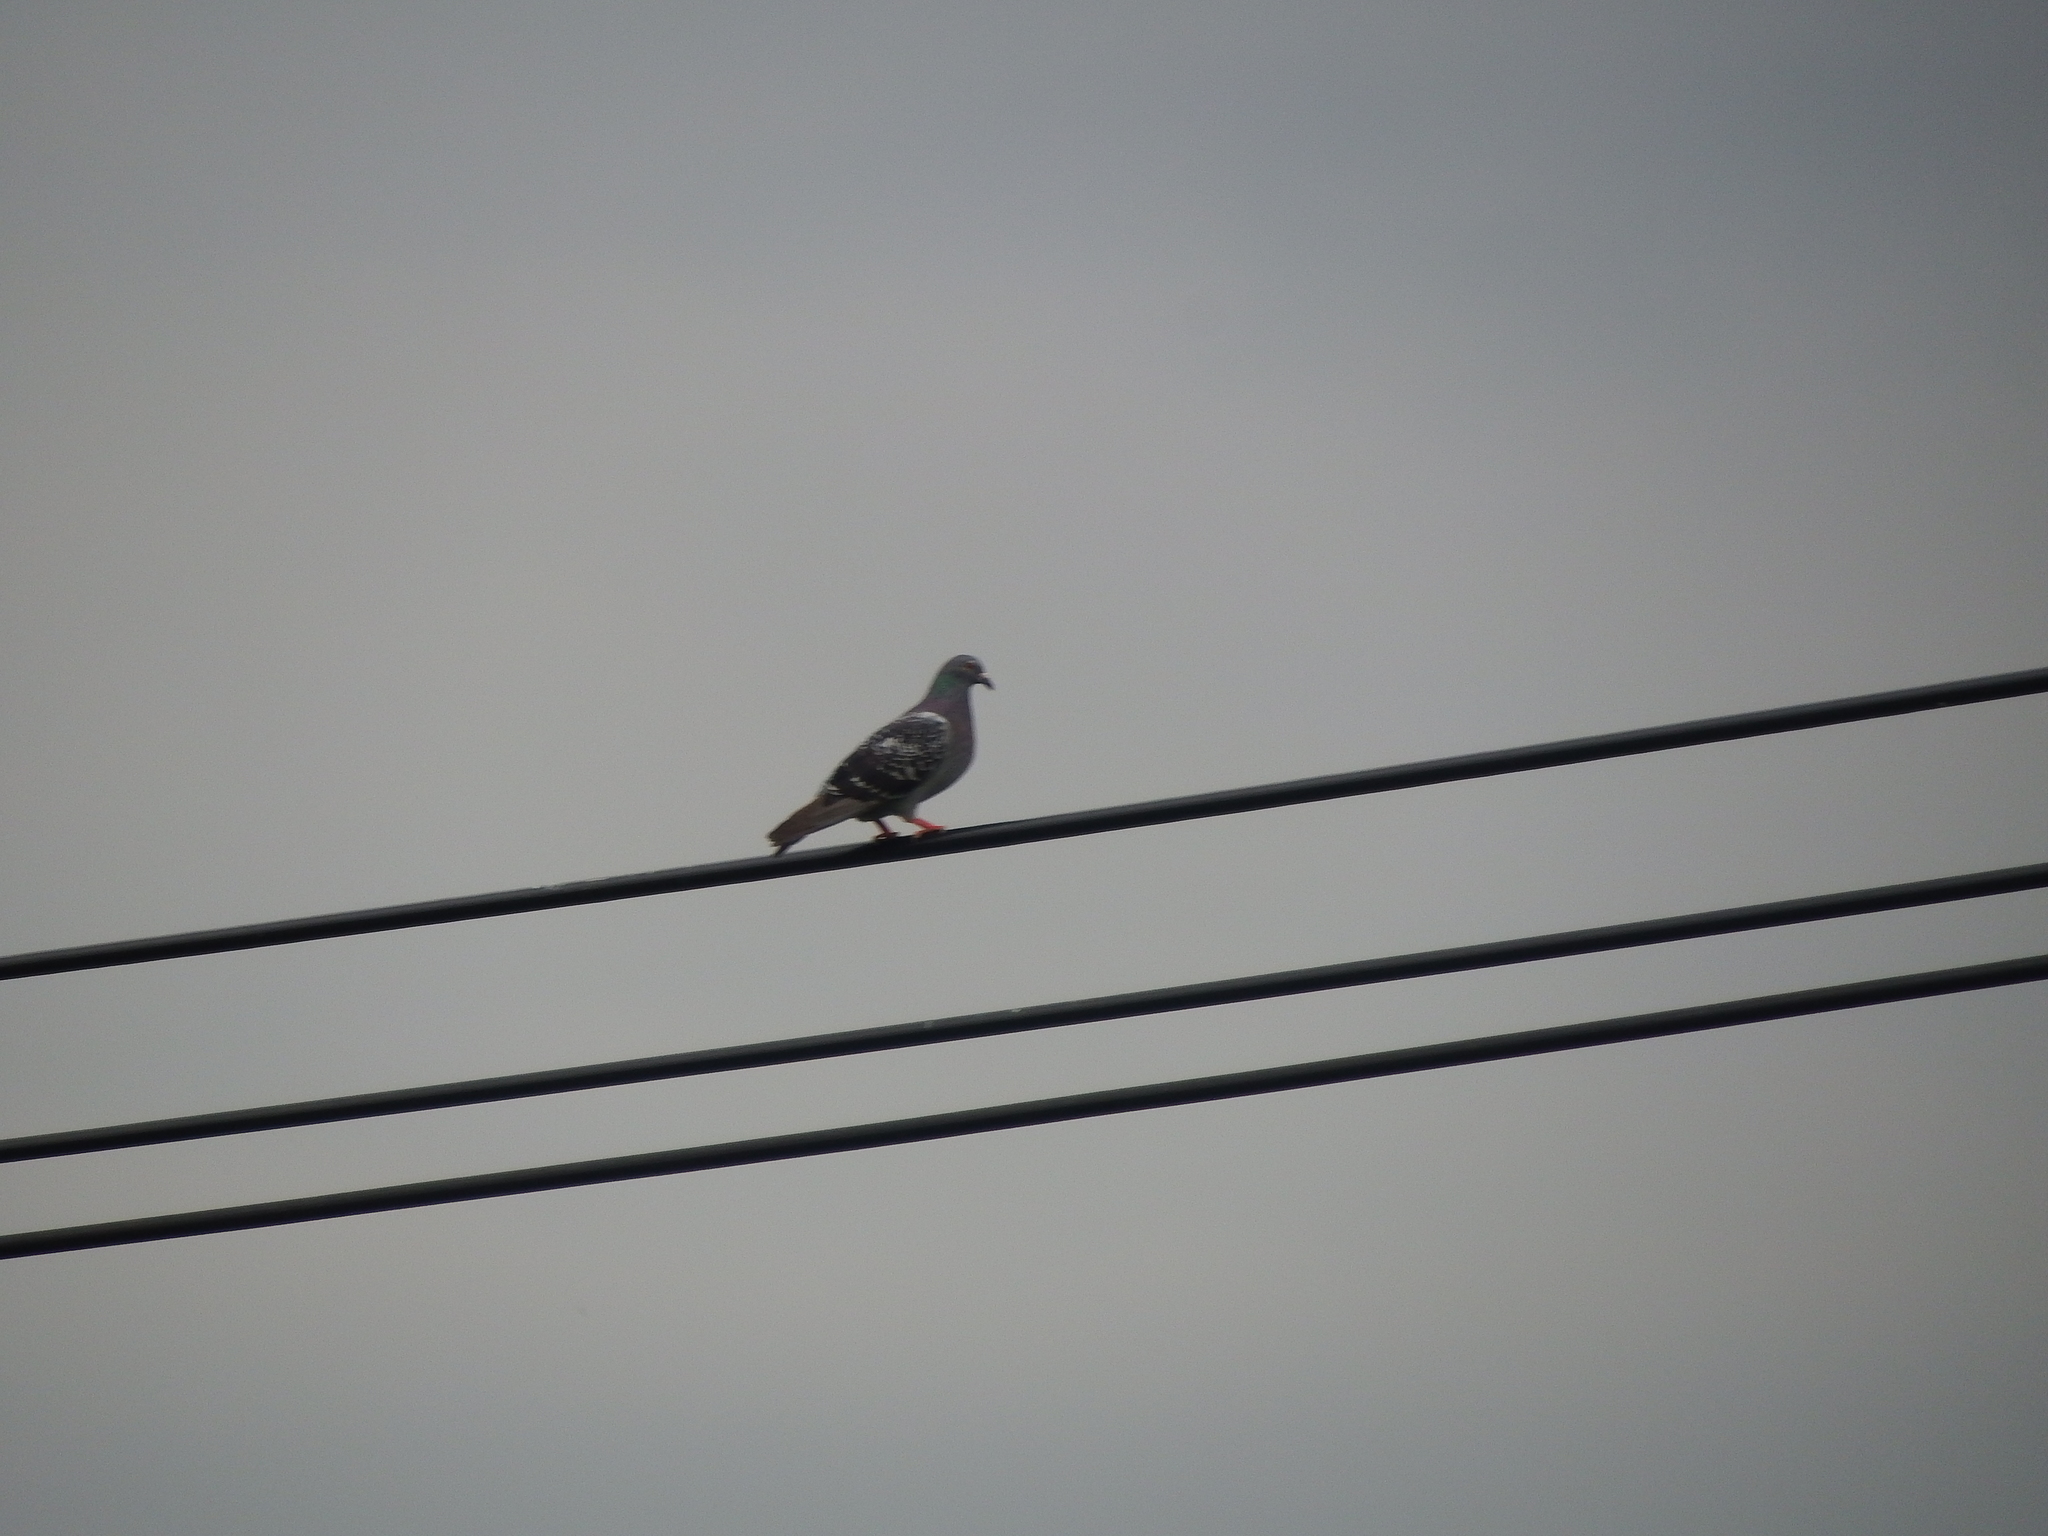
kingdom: Animalia
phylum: Chordata
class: Aves
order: Columbiformes
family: Columbidae
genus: Columba
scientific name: Columba livia
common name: Rock pigeon
